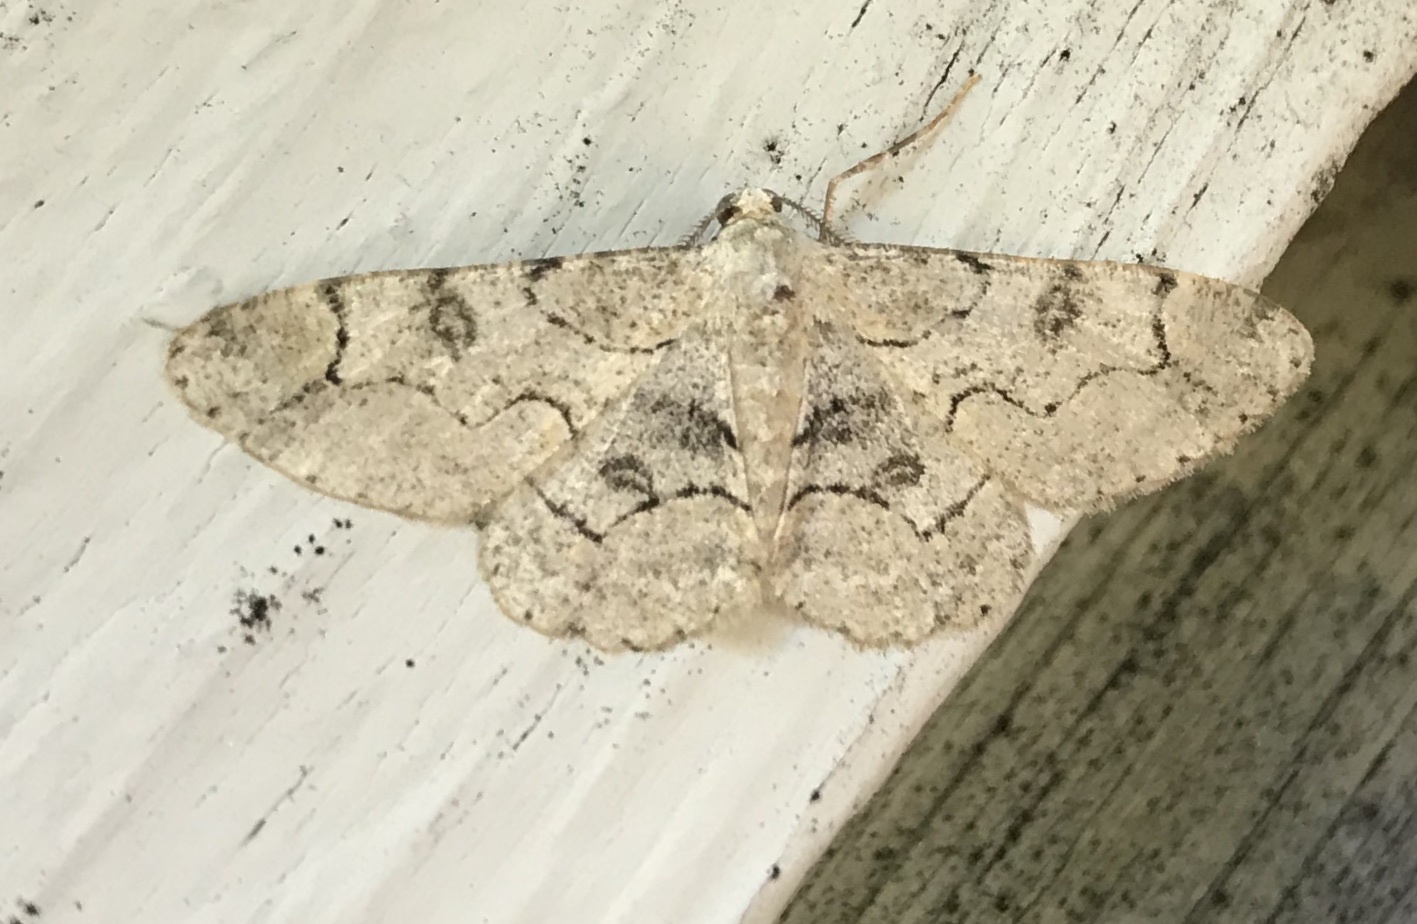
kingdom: Animalia
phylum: Arthropoda
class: Insecta
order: Lepidoptera
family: Geometridae
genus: Iridopsis
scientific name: Iridopsis larvaria
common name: Bent-line gray
